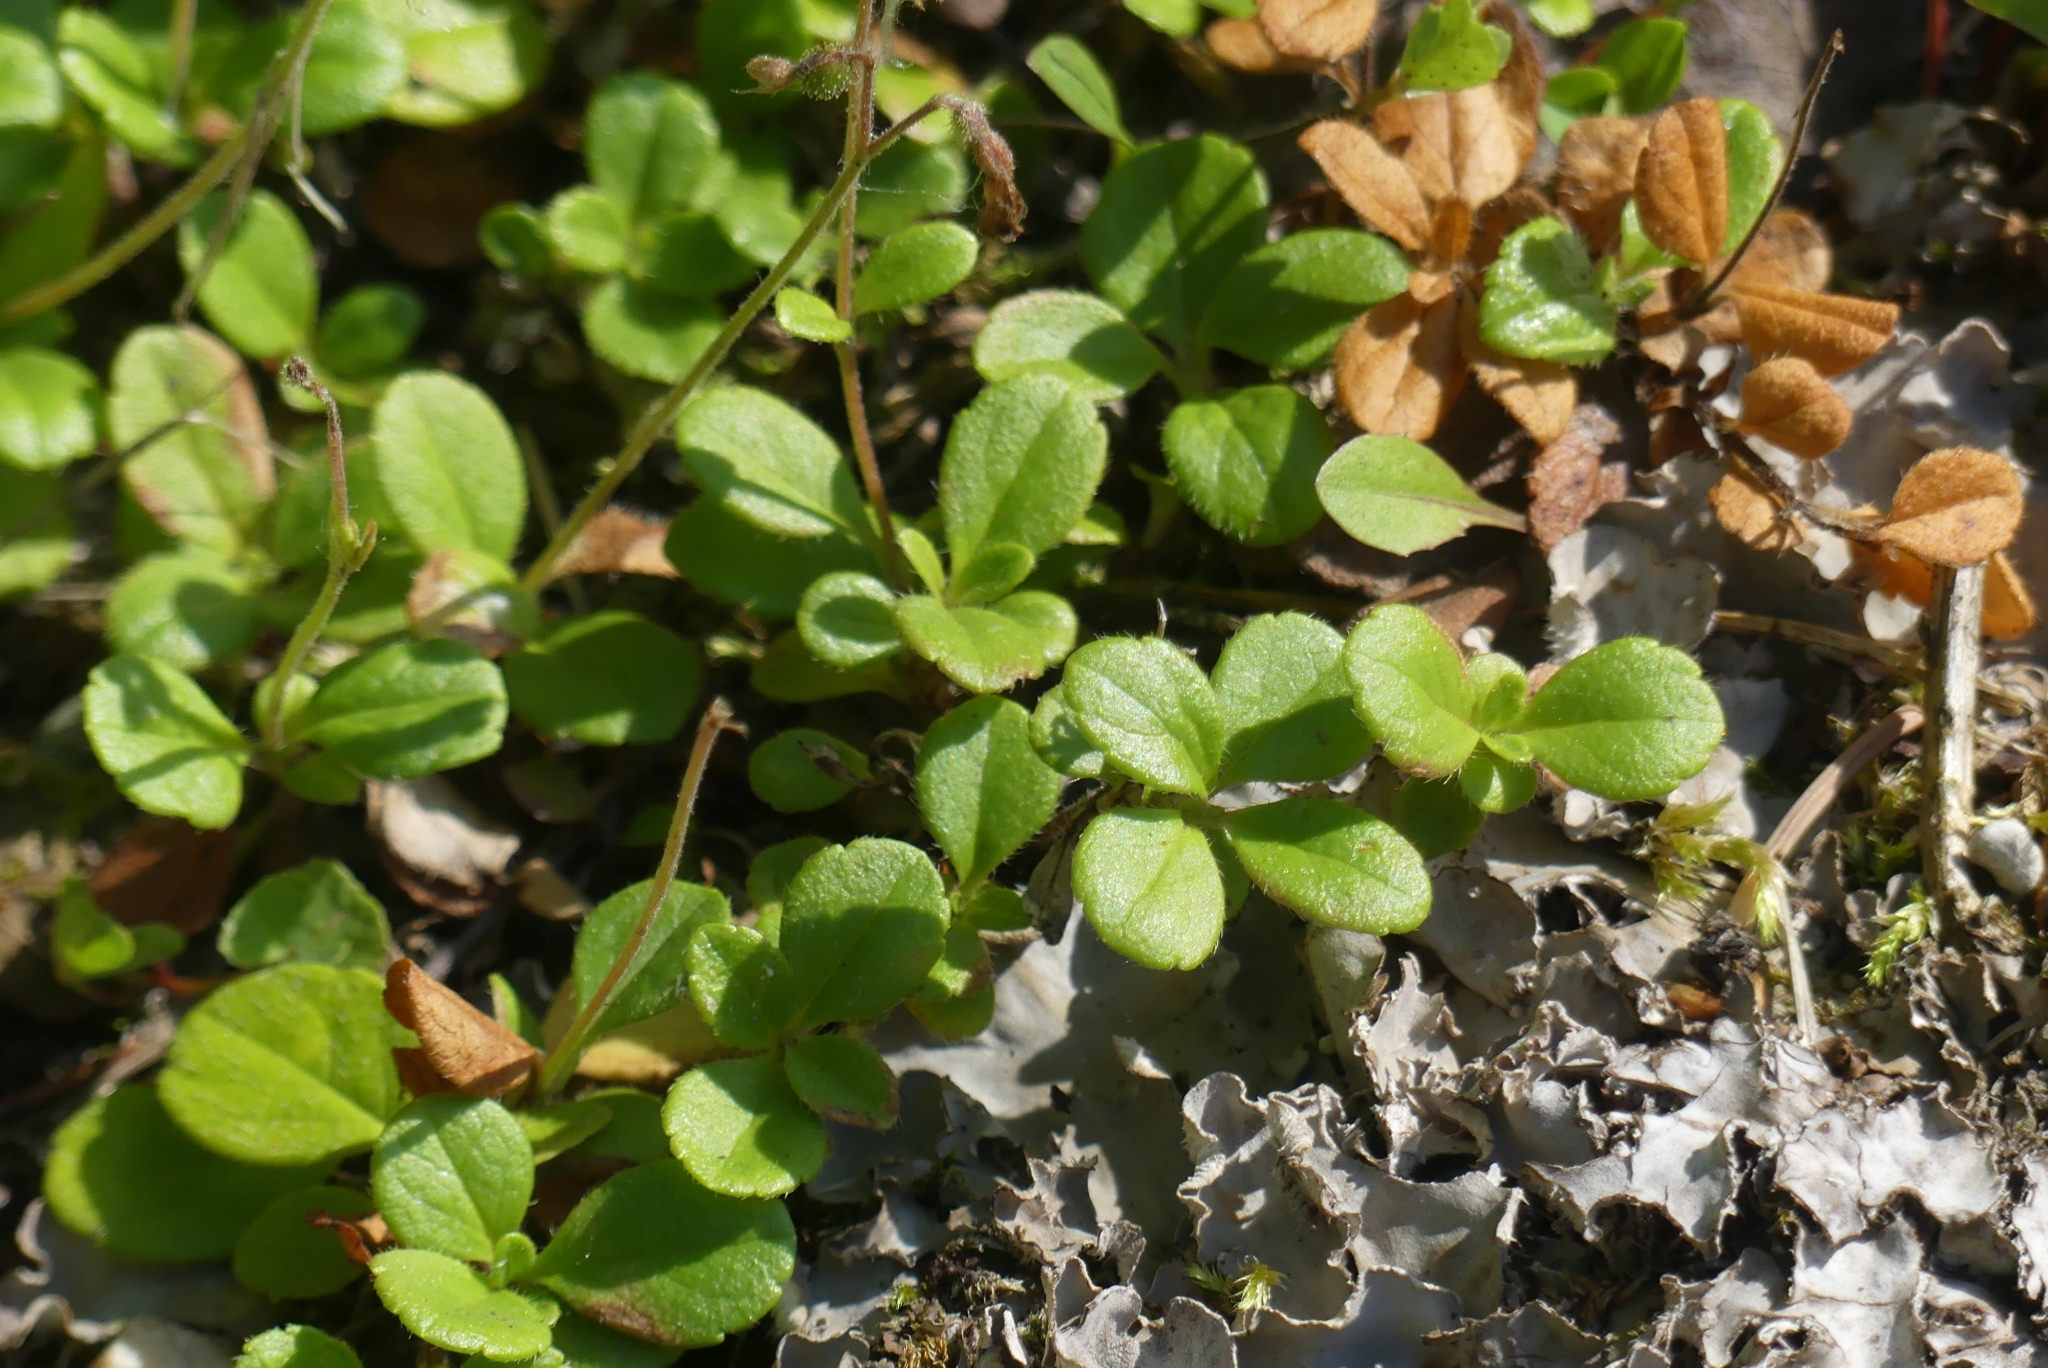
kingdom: Plantae
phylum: Tracheophyta
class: Magnoliopsida
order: Dipsacales
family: Caprifoliaceae
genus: Linnaea
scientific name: Linnaea borealis
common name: Twinflower
